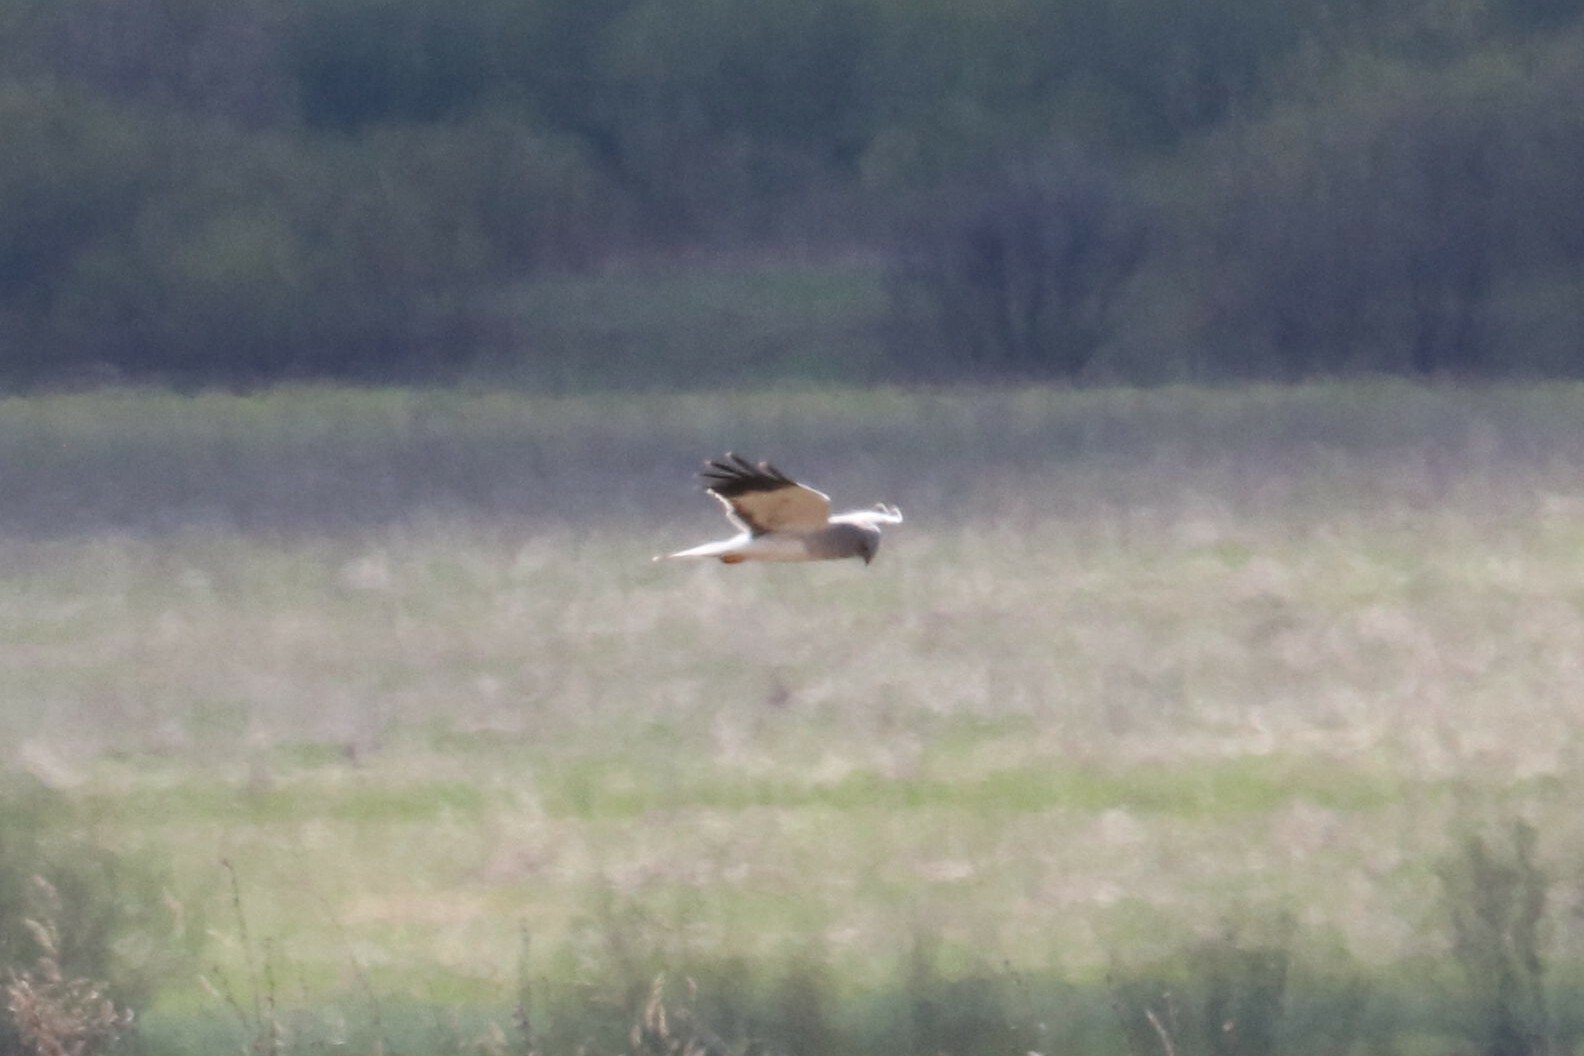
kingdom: Animalia
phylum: Chordata
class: Aves
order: Accipitriformes
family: Accipitridae
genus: Circus
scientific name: Circus cyaneus
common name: Hen harrier
